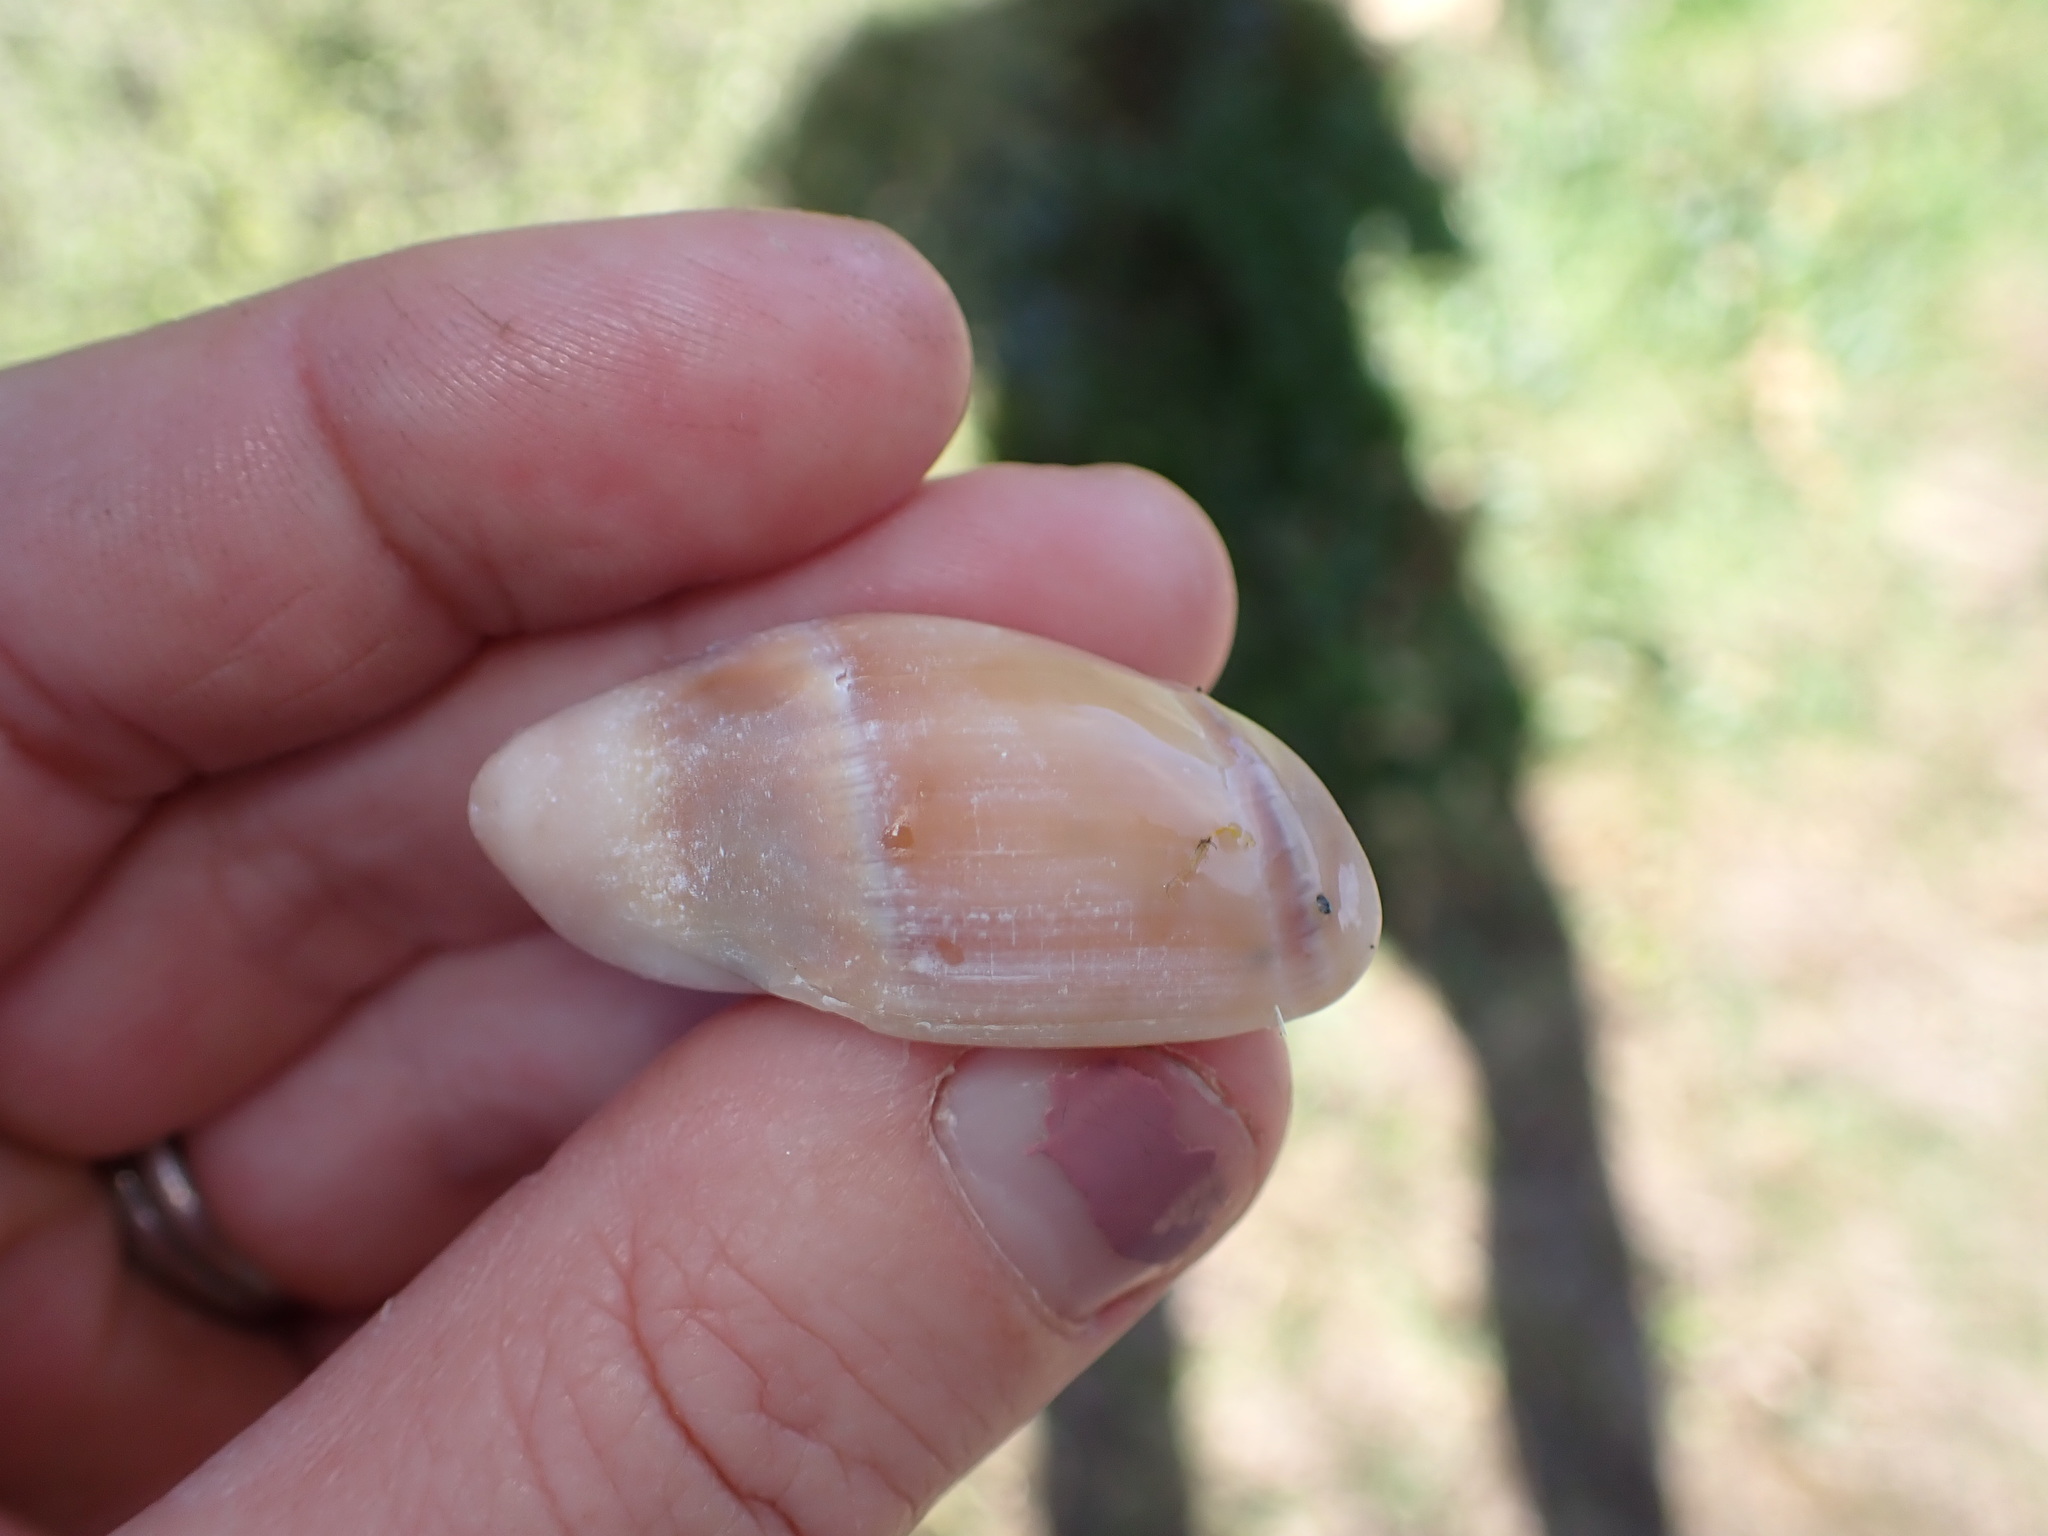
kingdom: Animalia
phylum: Mollusca
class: Gastropoda
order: Neogastropoda
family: Ancillariidae
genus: Amalda
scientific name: Amalda australis
